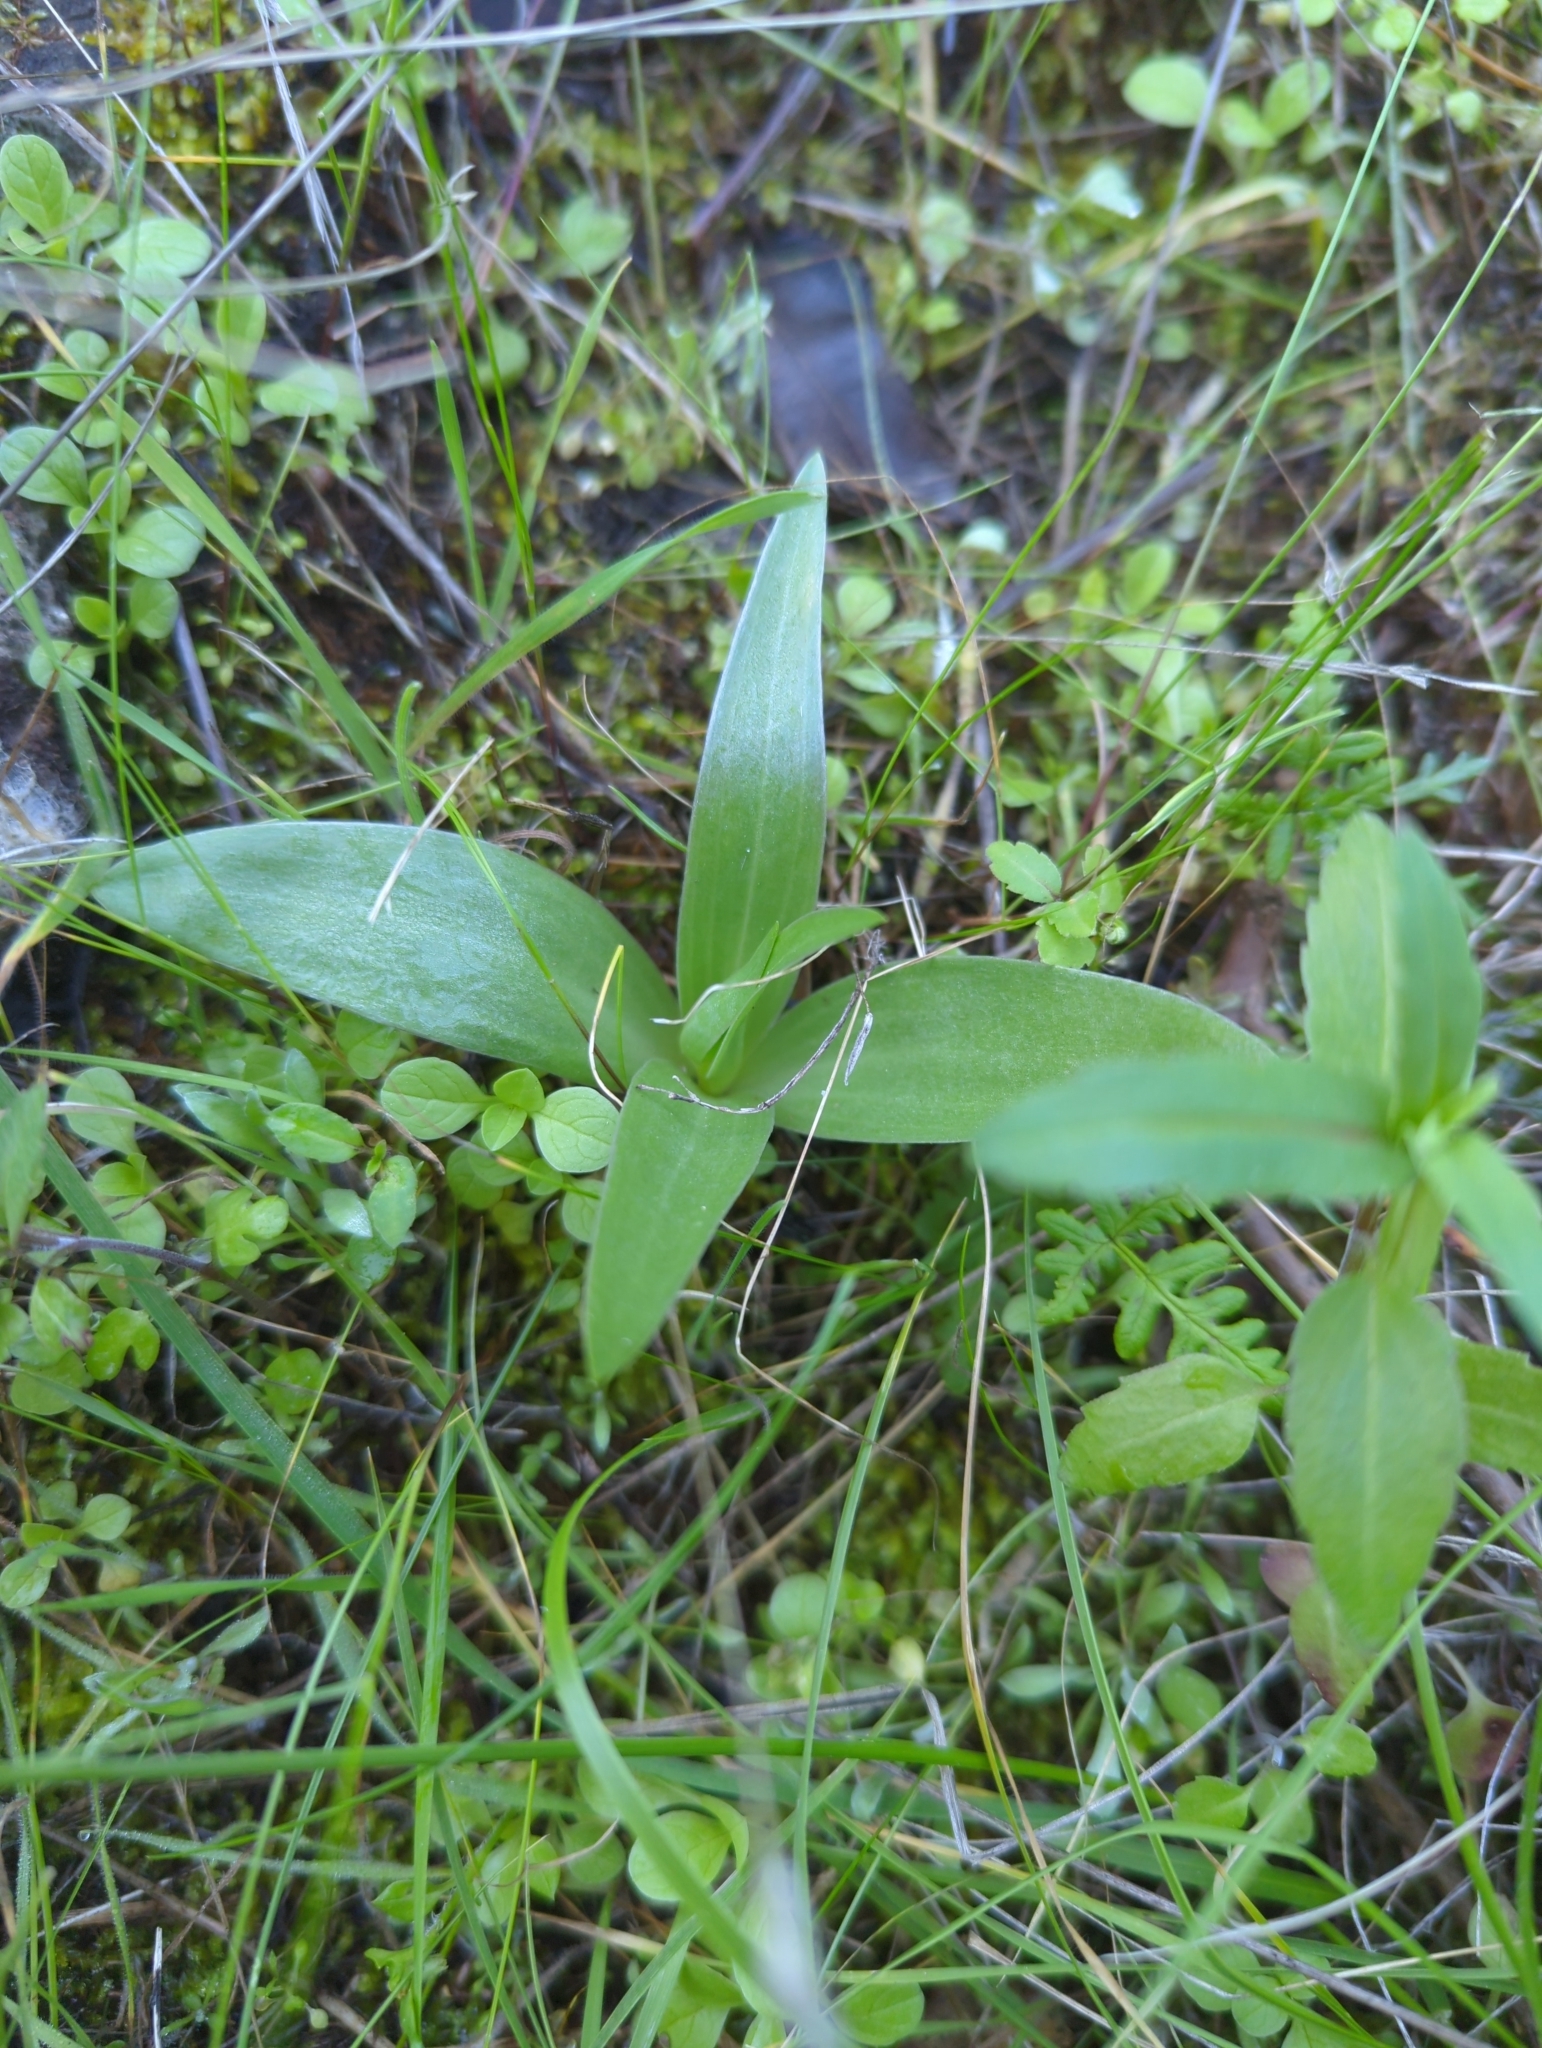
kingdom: Plantae
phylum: Tracheophyta
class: Liliopsida
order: Liliales
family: Liliaceae
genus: Fritillaria
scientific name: Fritillaria biflora
